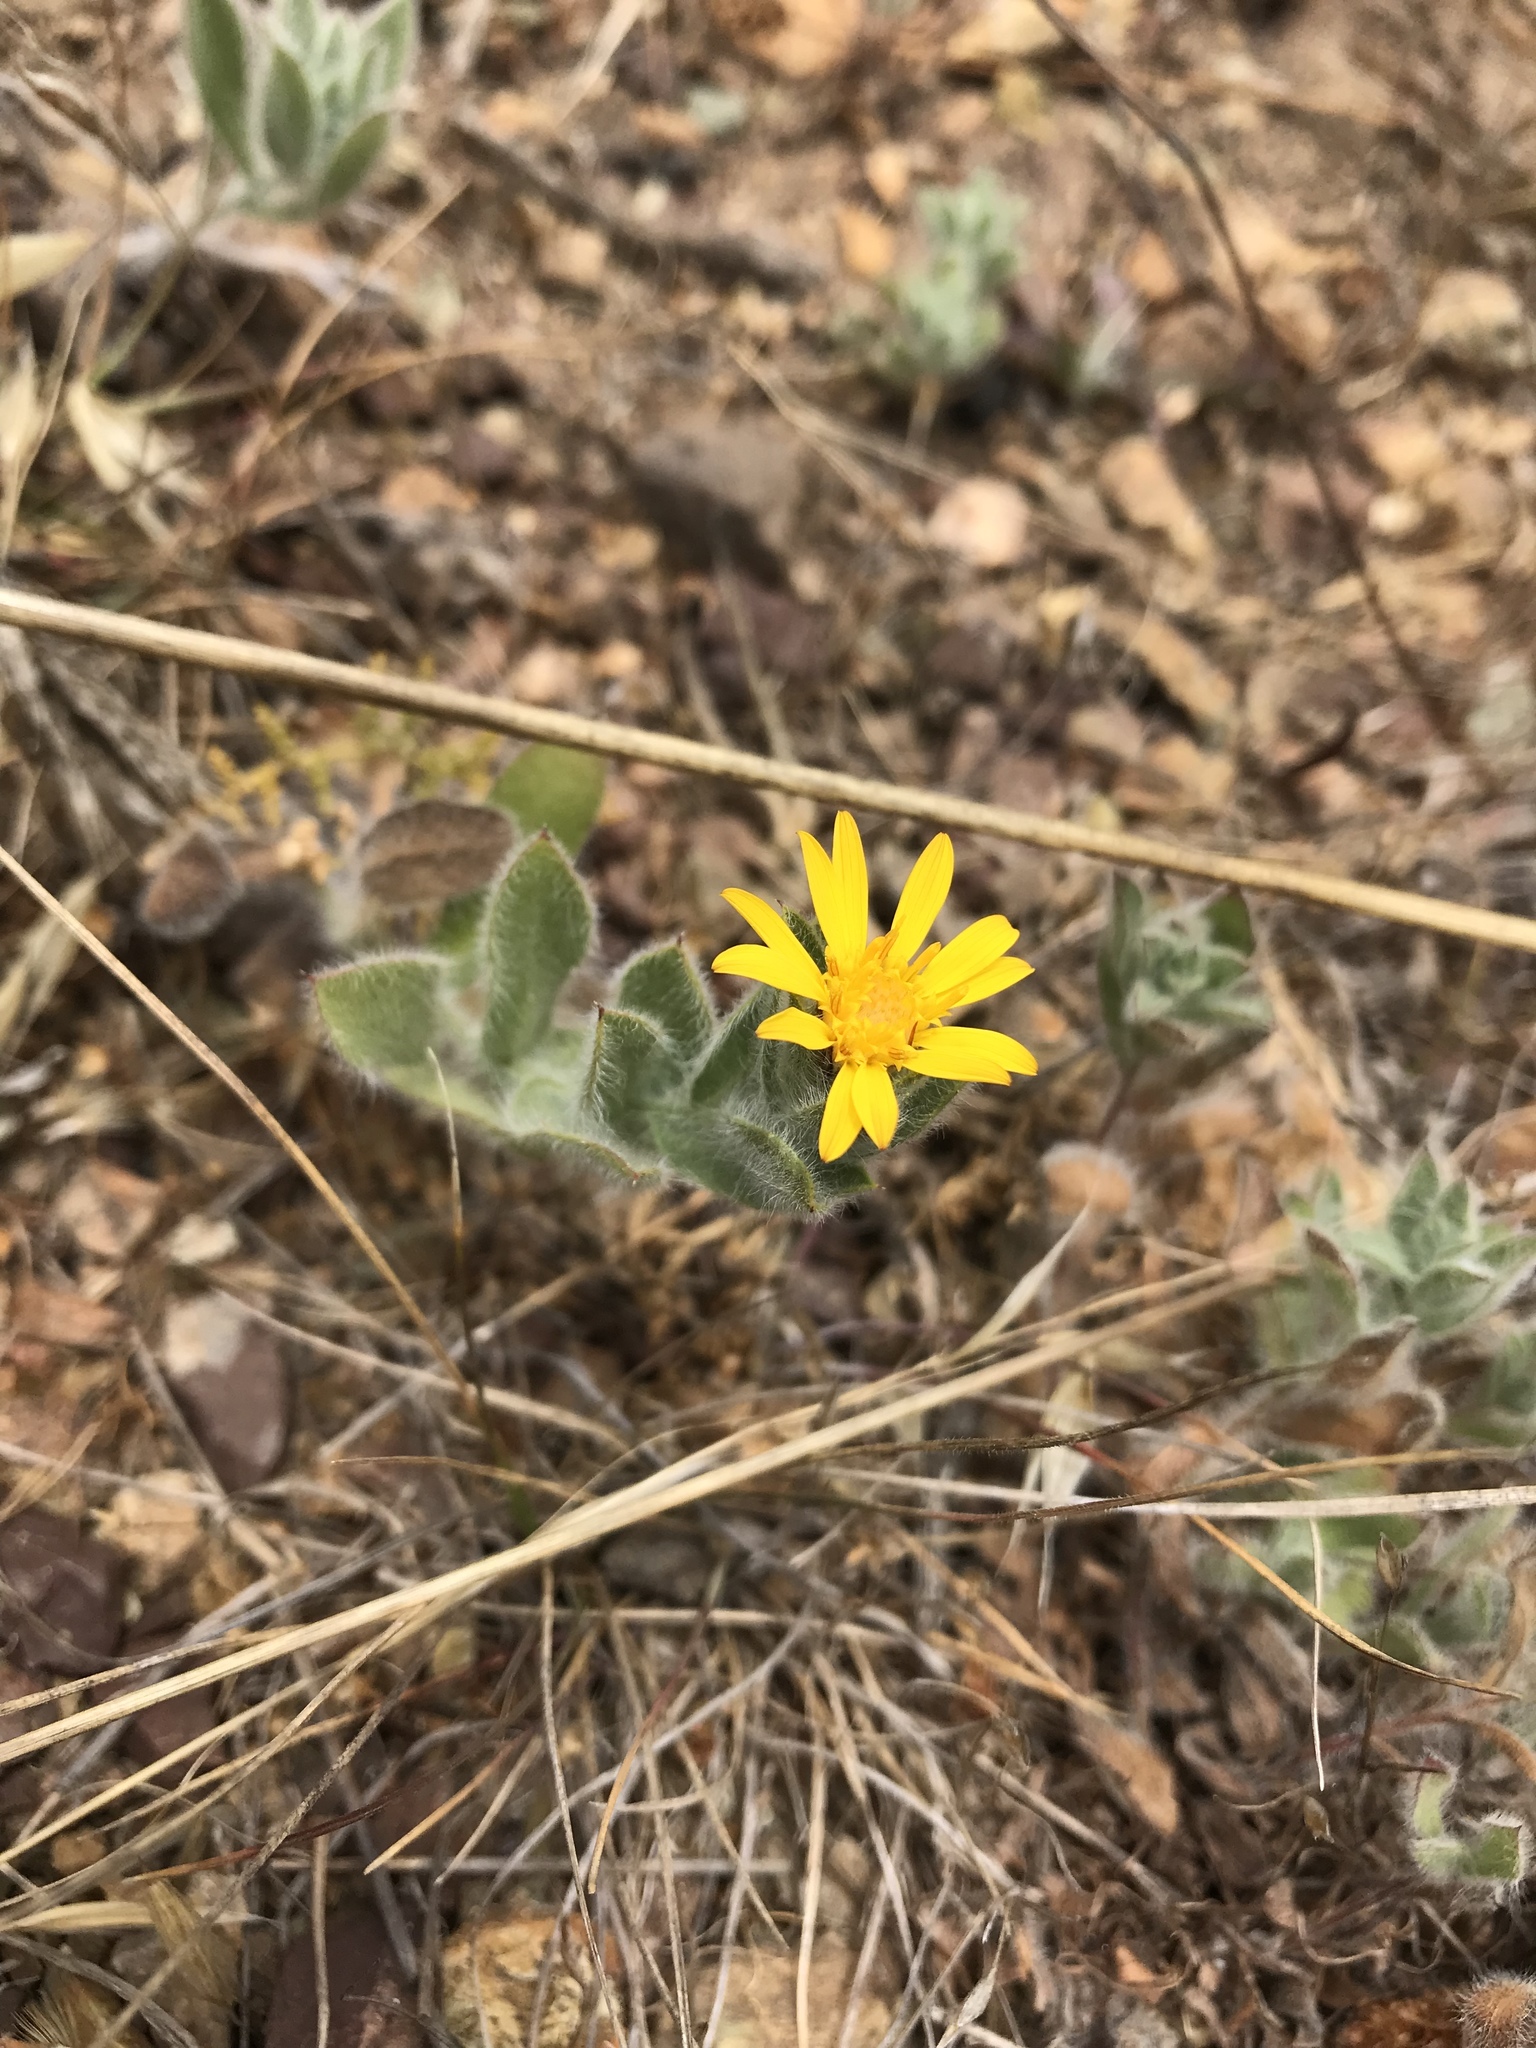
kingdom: Plantae
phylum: Tracheophyta
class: Magnoliopsida
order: Asterales
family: Asteraceae
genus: Heterotheca
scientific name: Heterotheca sessiliflora
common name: Sessile-flower golden-aster
